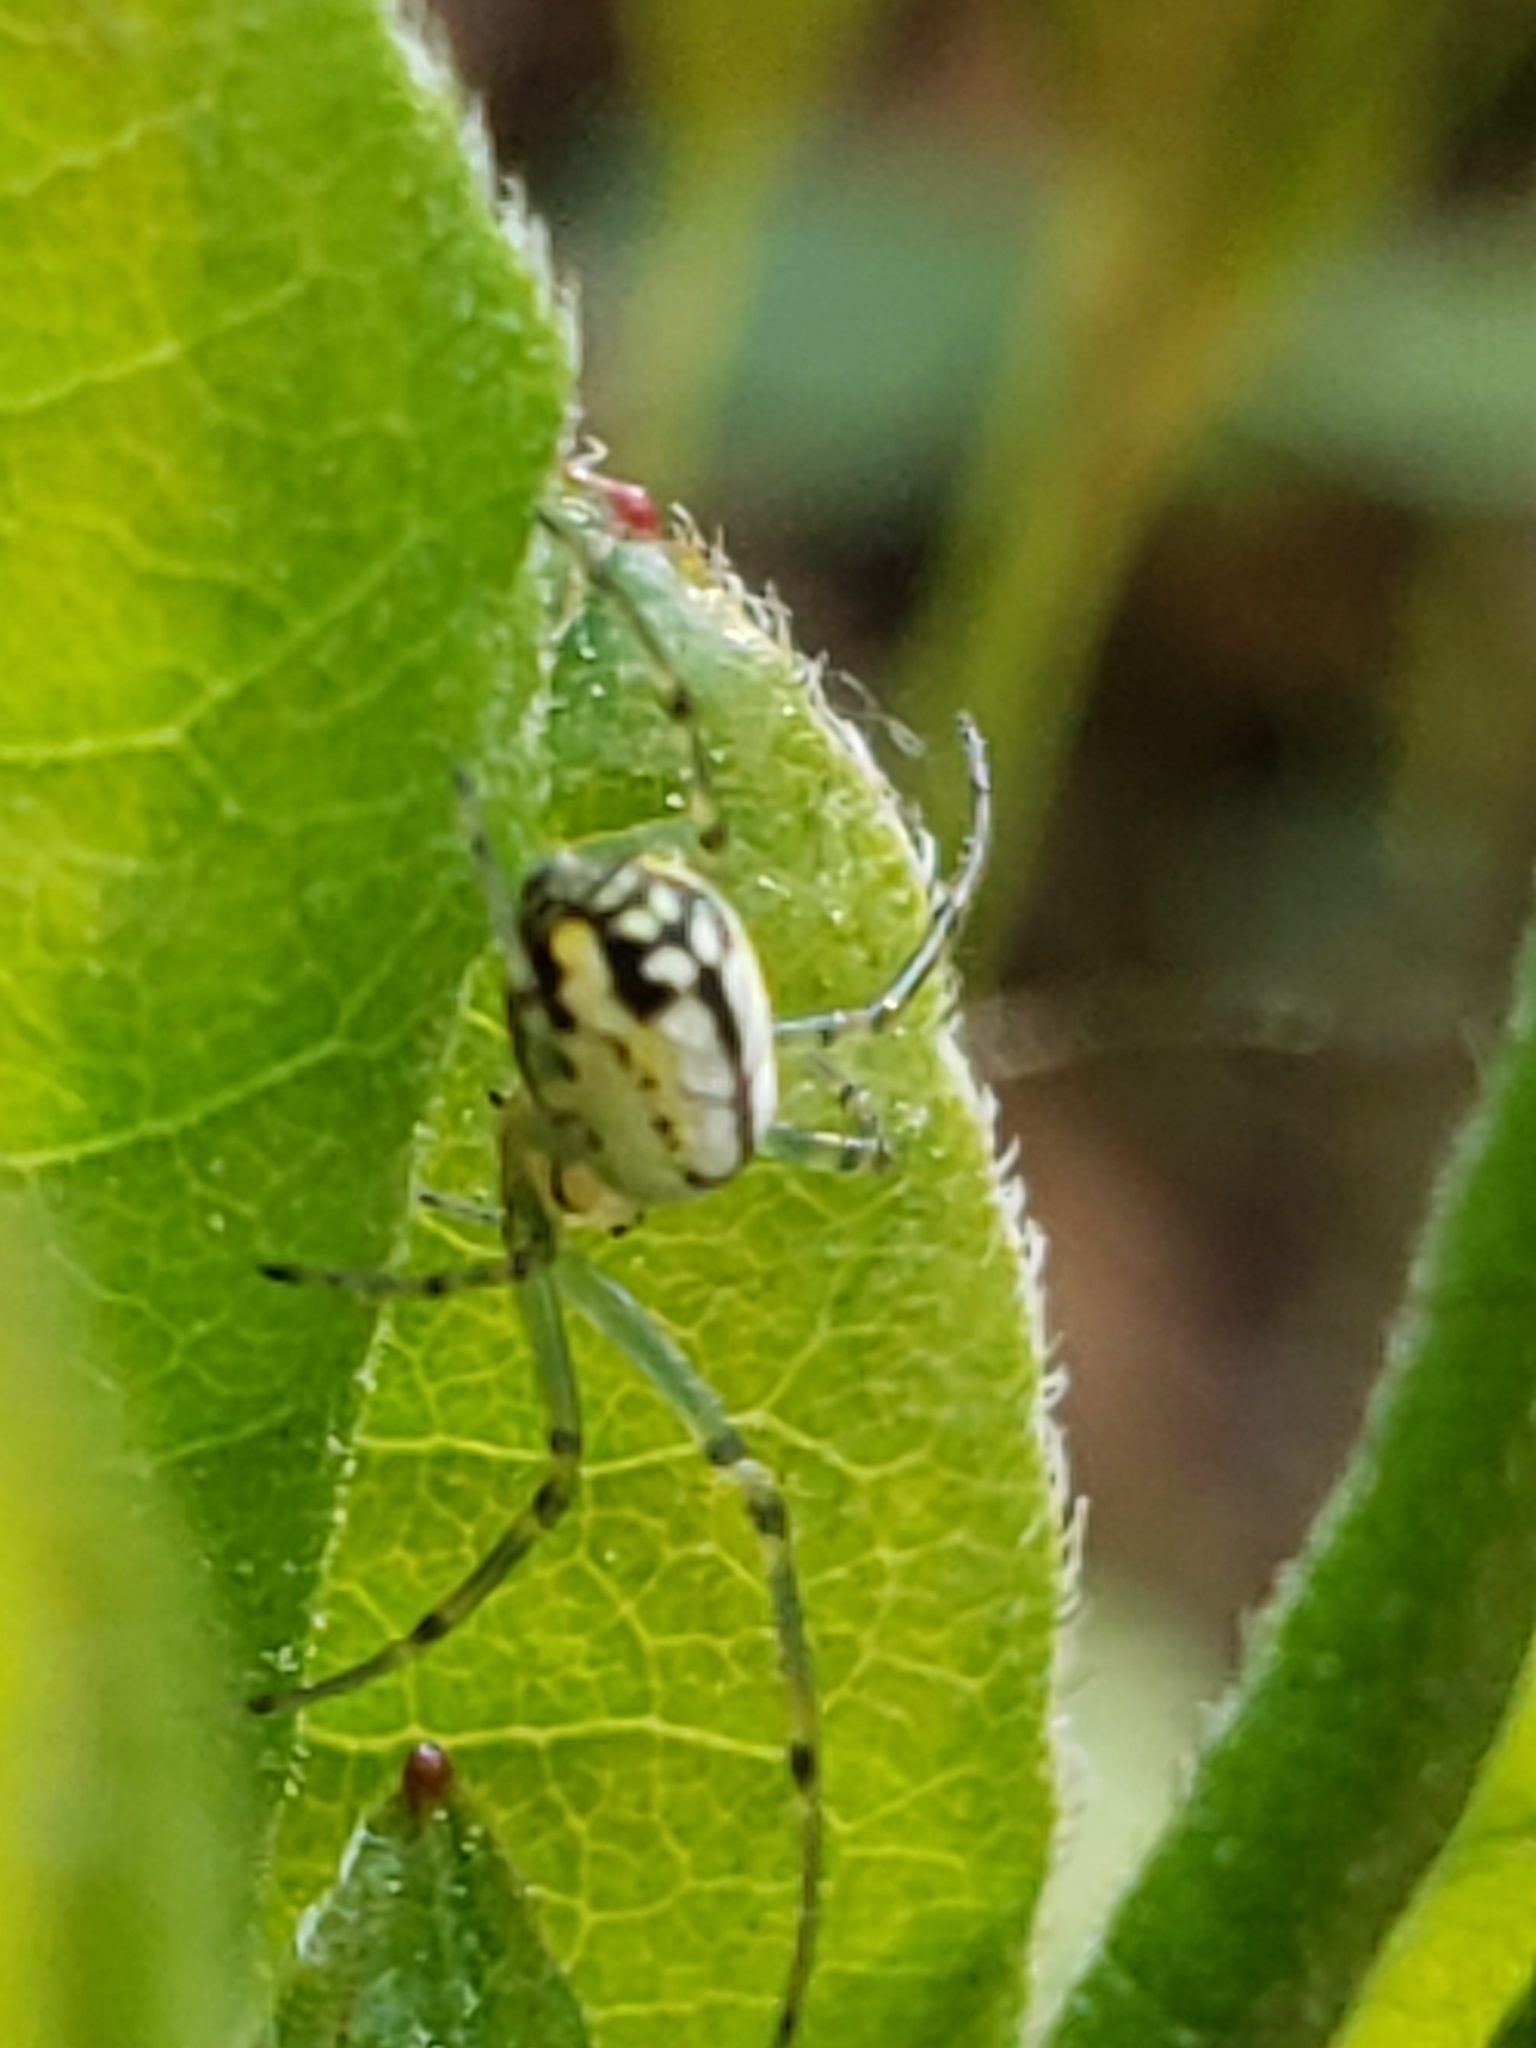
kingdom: Animalia
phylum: Arthropoda
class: Arachnida
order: Araneae
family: Tetragnathidae
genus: Leucauge
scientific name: Leucauge venusta
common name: Longjawed orb weavers
